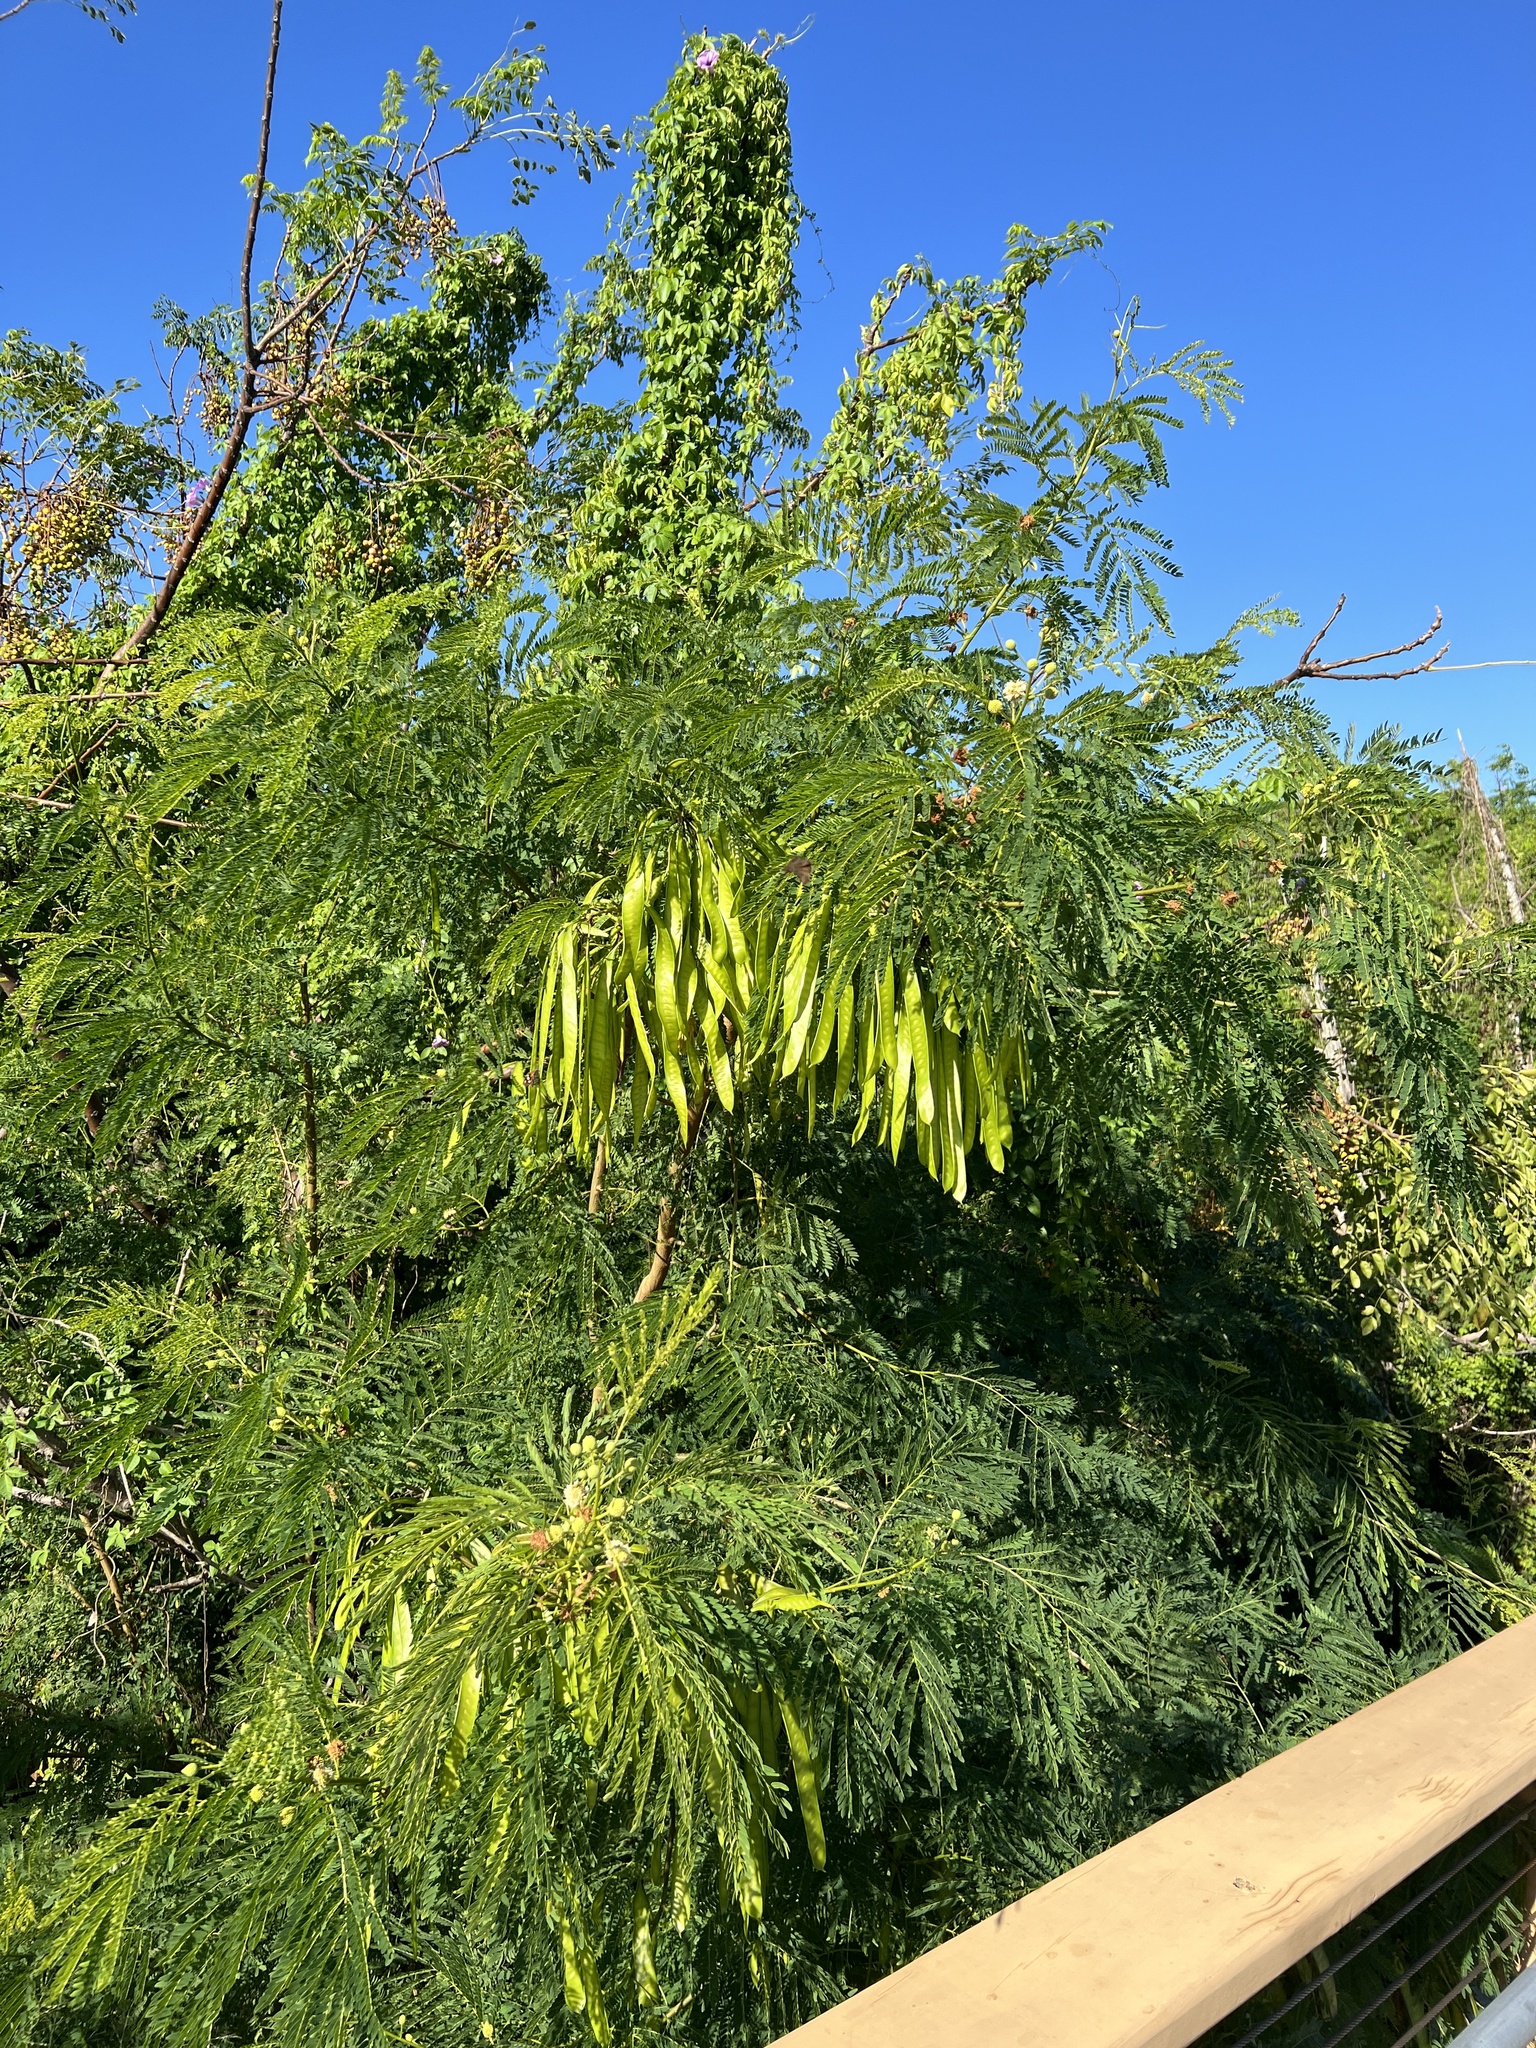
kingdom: Plantae
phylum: Tracheophyta
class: Magnoliopsida
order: Fabales
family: Fabaceae
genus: Leucaena
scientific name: Leucaena leucocephala
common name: White leadtree
